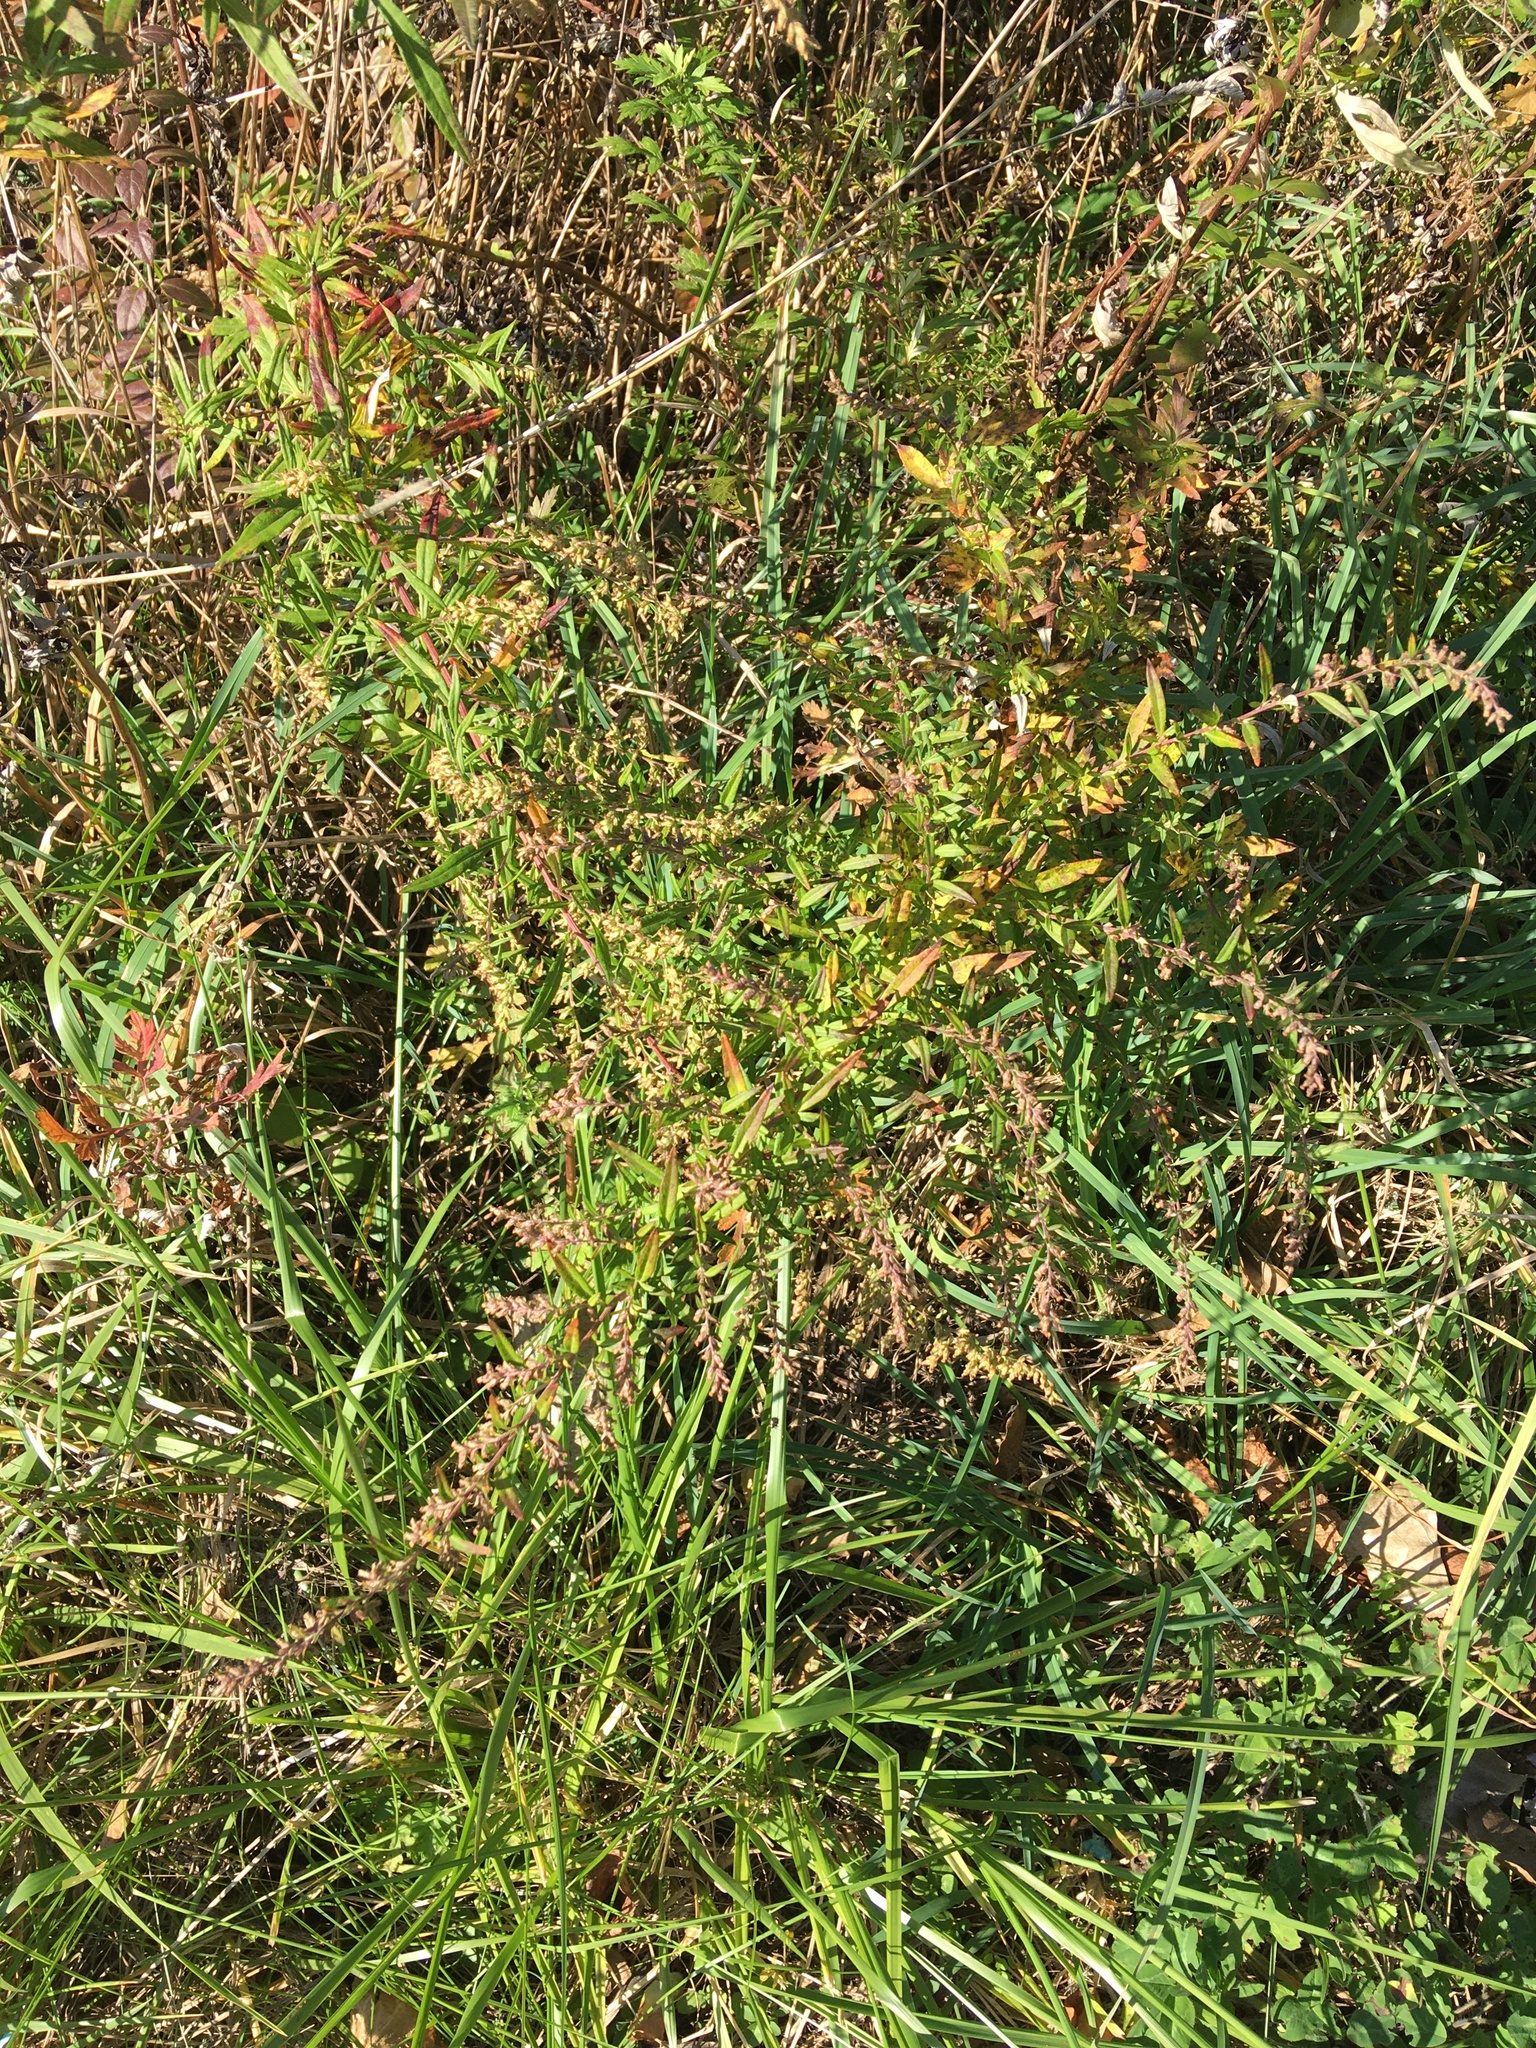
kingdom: Plantae
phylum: Tracheophyta
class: Magnoliopsida
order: Asterales
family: Asteraceae
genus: Artemisia
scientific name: Artemisia vulgaris
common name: Mugwort
